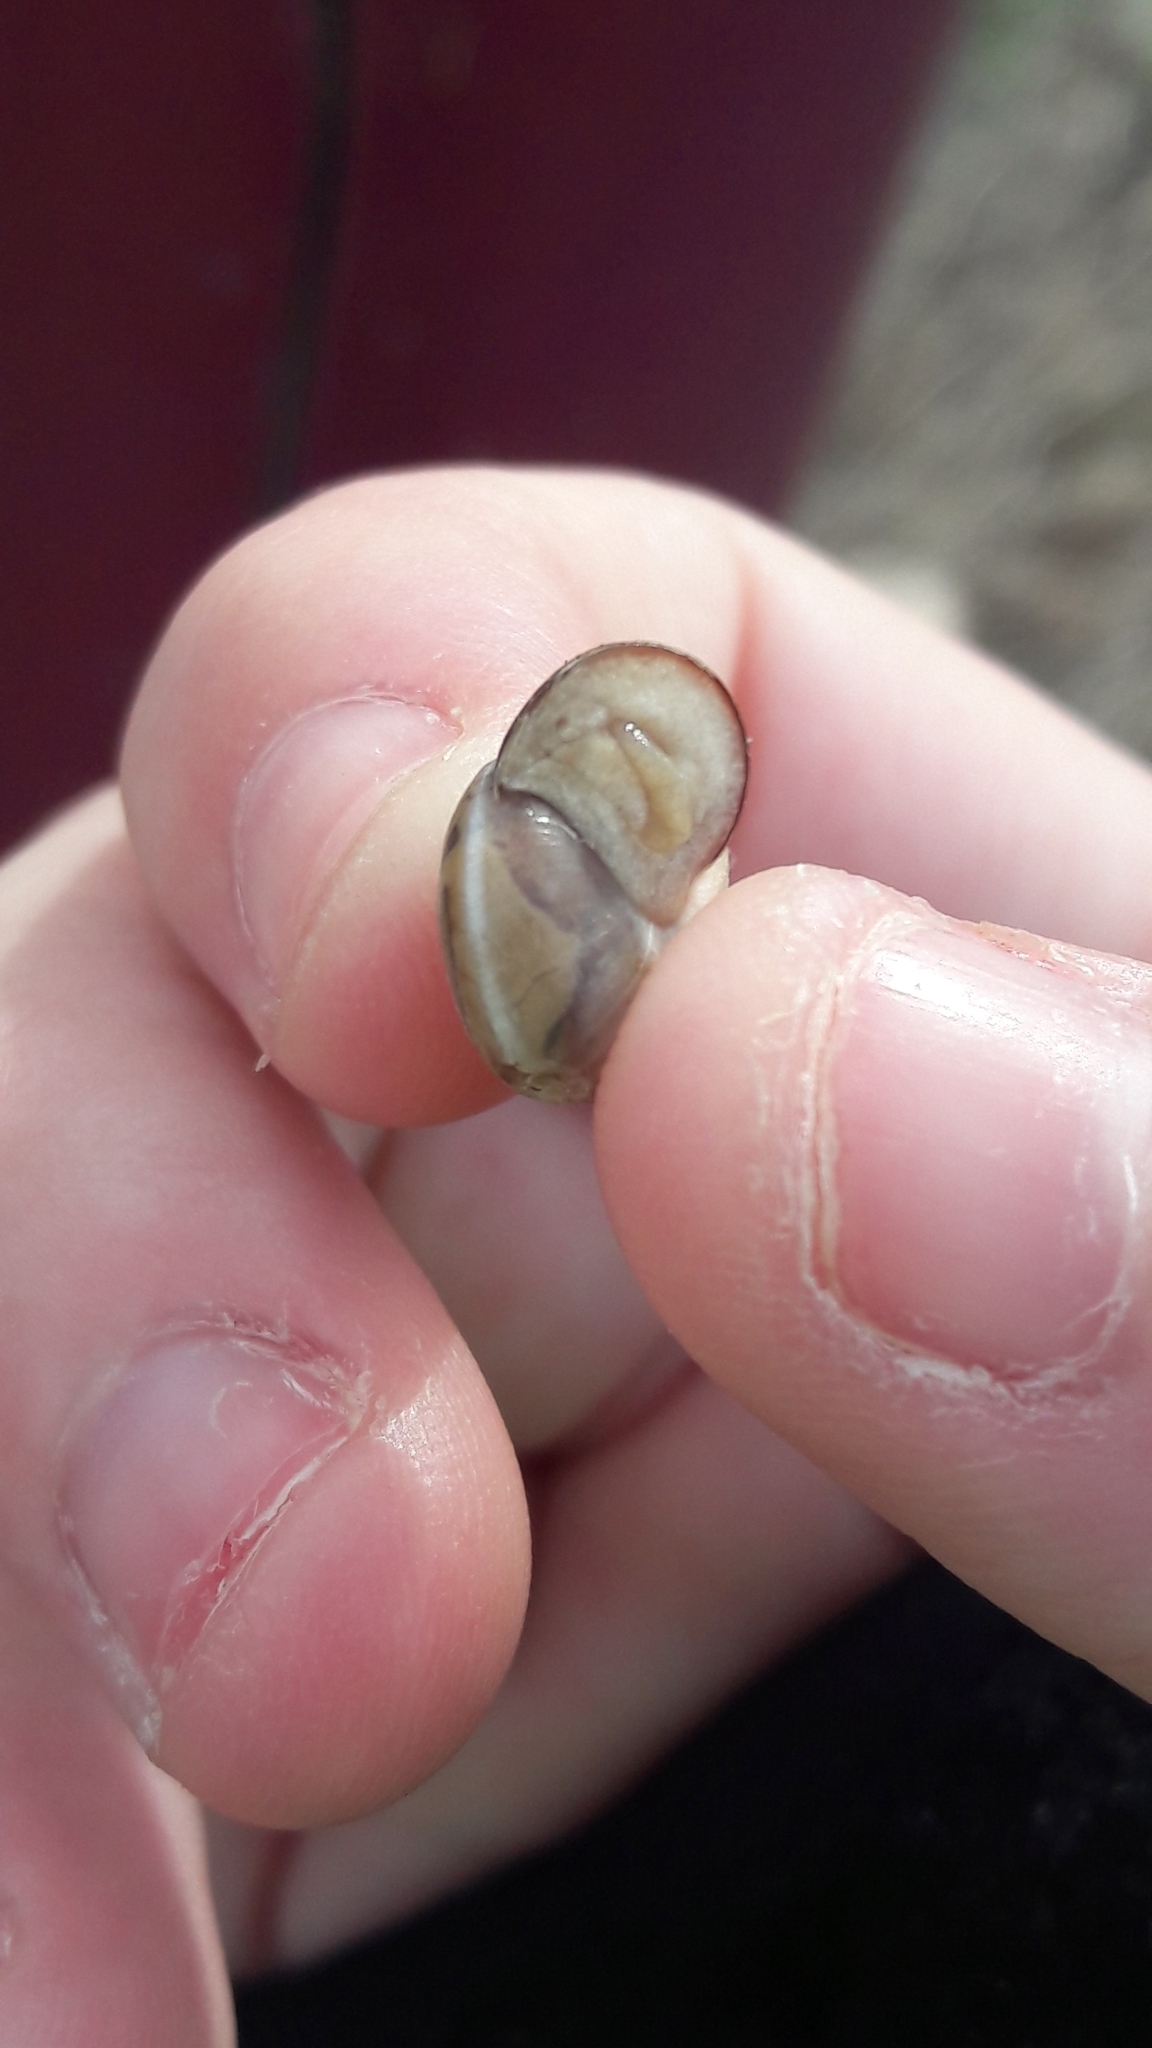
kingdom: Animalia
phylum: Mollusca
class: Gastropoda
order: Stylommatophora
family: Hygromiidae
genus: Monacha
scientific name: Monacha syriaca
